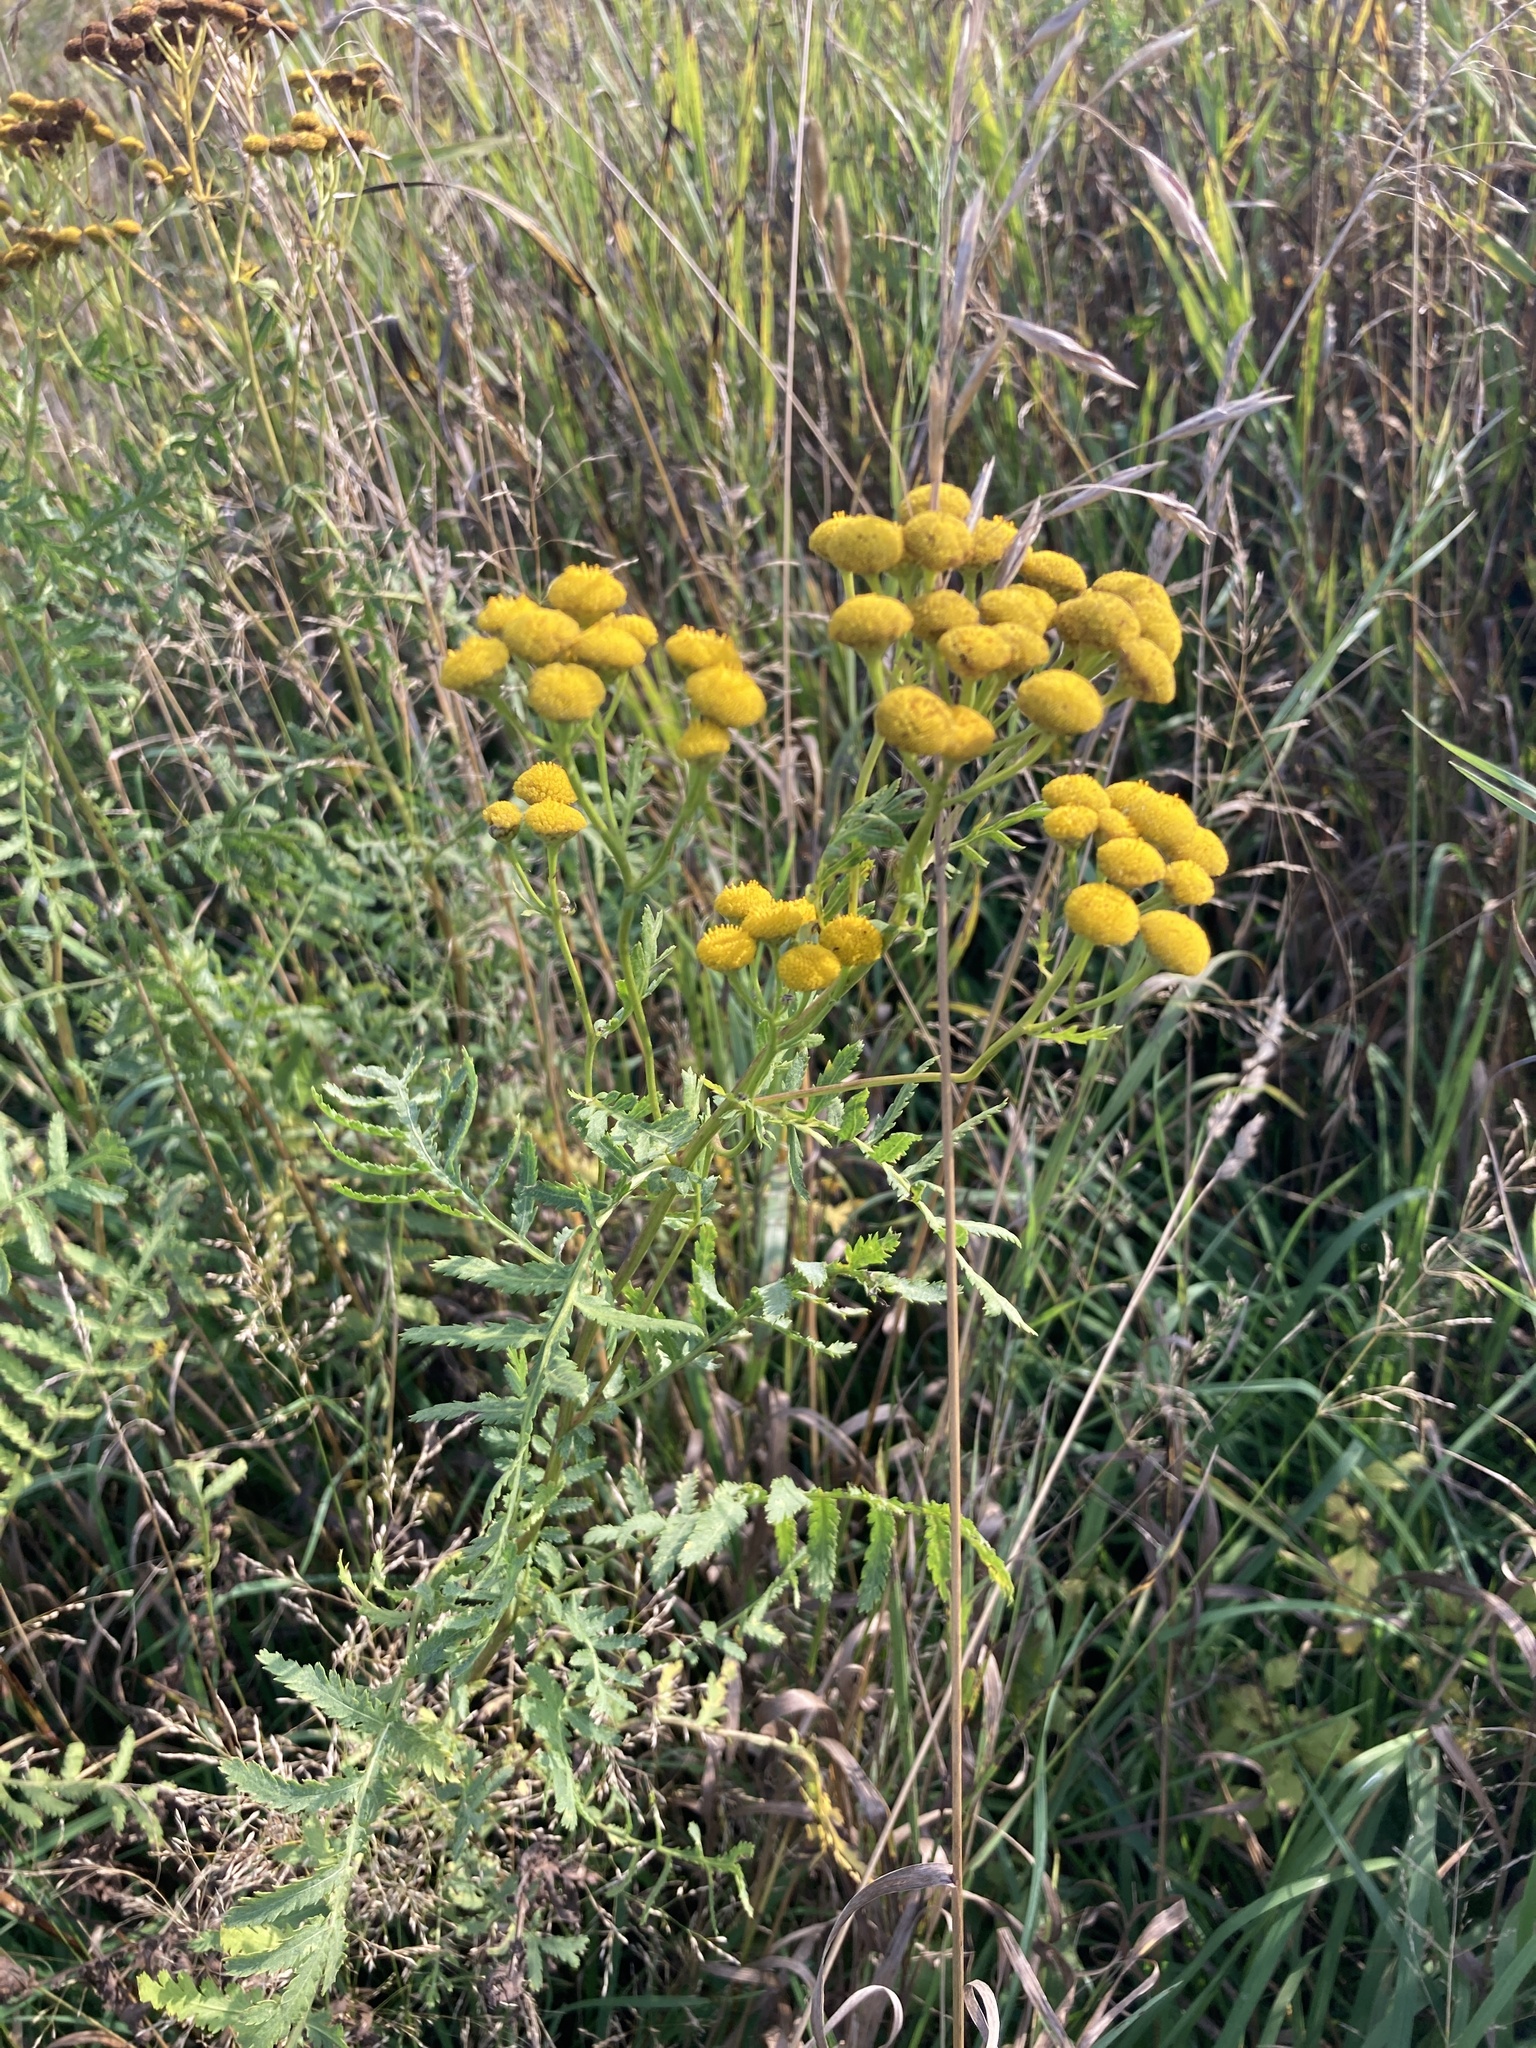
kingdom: Plantae
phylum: Tracheophyta
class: Magnoliopsida
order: Asterales
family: Asteraceae
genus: Tanacetum
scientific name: Tanacetum vulgare
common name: Common tansy
